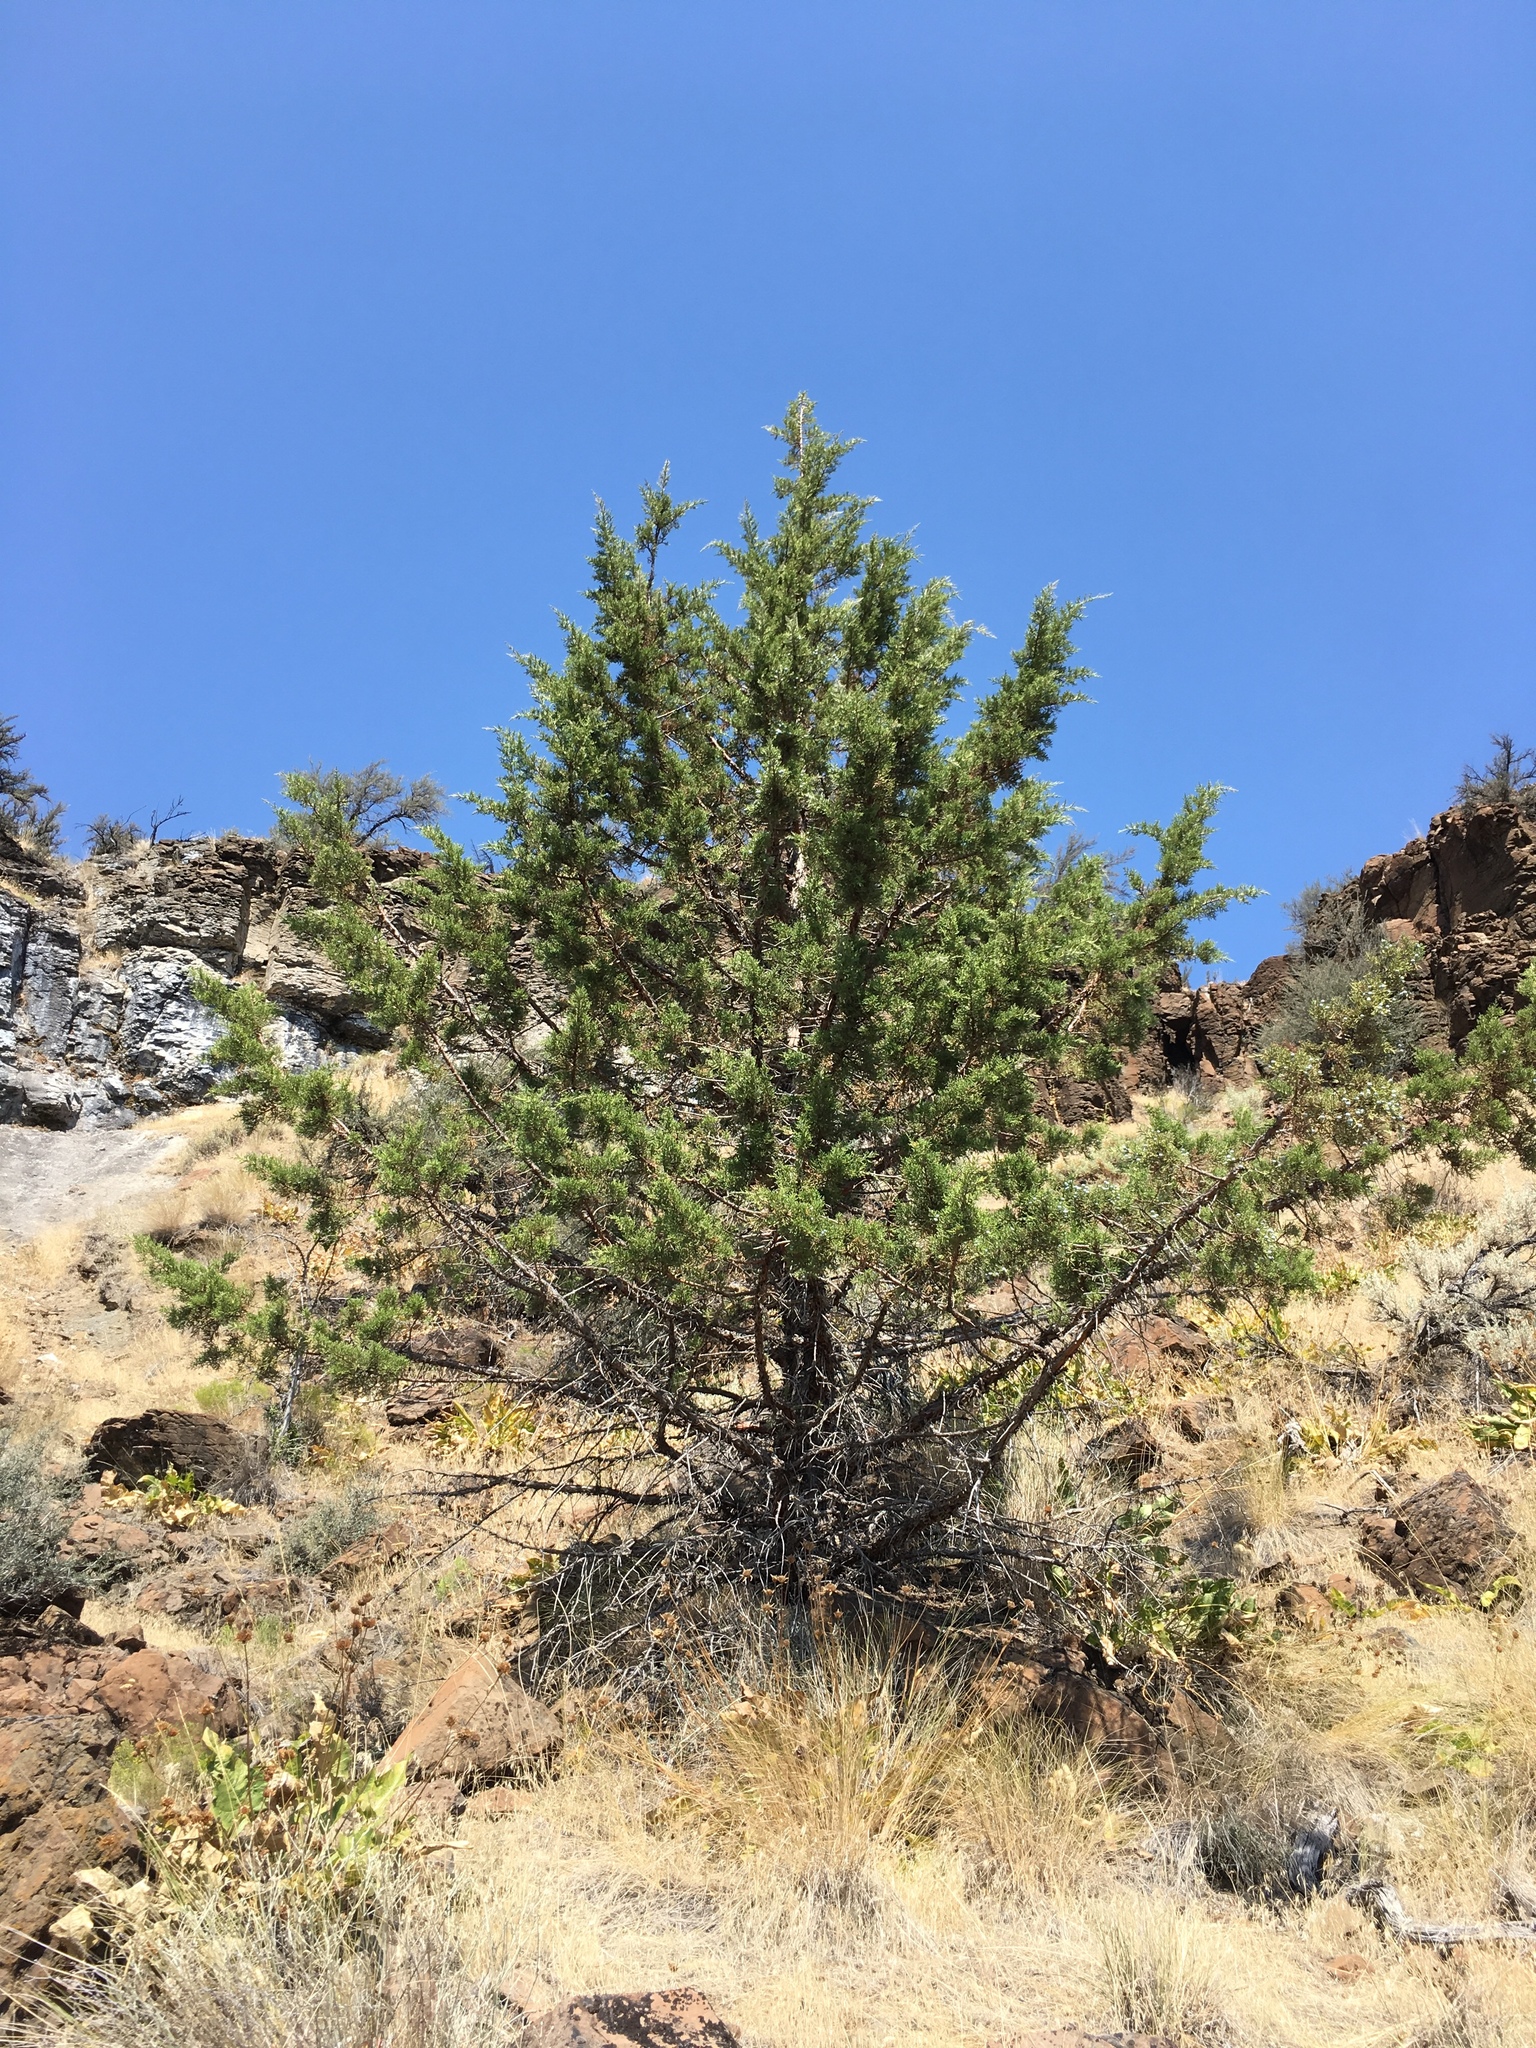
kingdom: Plantae
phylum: Tracheophyta
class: Pinopsida
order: Pinales
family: Cupressaceae
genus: Juniperus
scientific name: Juniperus occidentalis
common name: Western juniper
